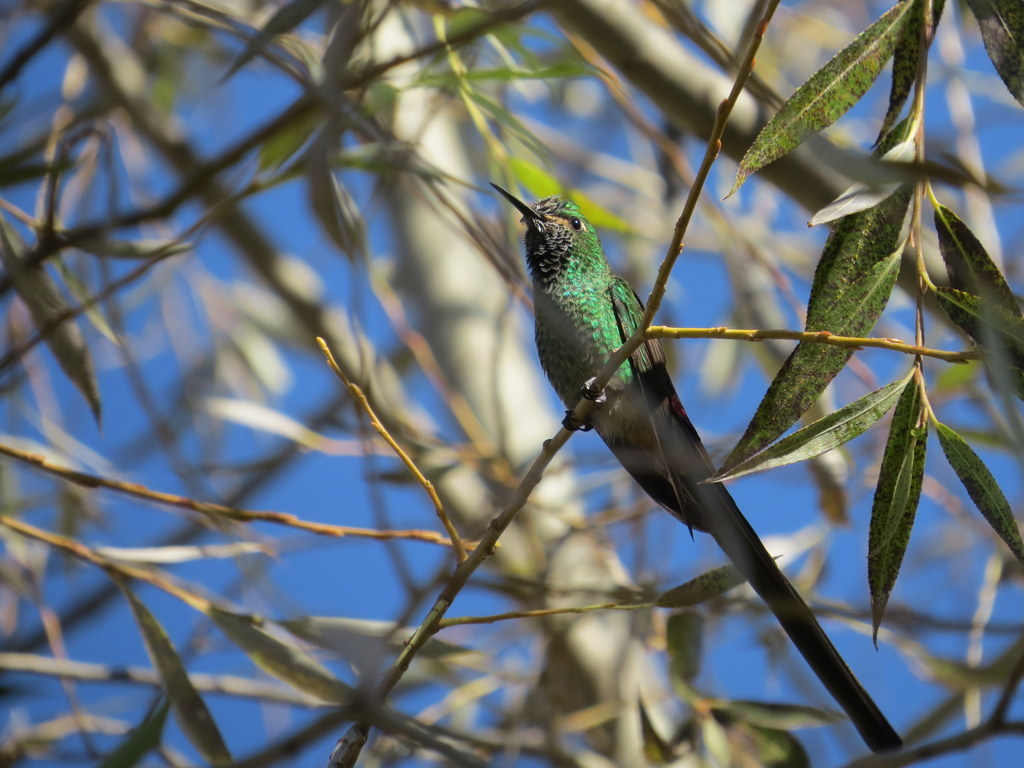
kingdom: Animalia
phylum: Chordata
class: Aves
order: Apodiformes
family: Trochilidae
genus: Sappho
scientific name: Sappho sparganurus
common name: Red-tailed comet
